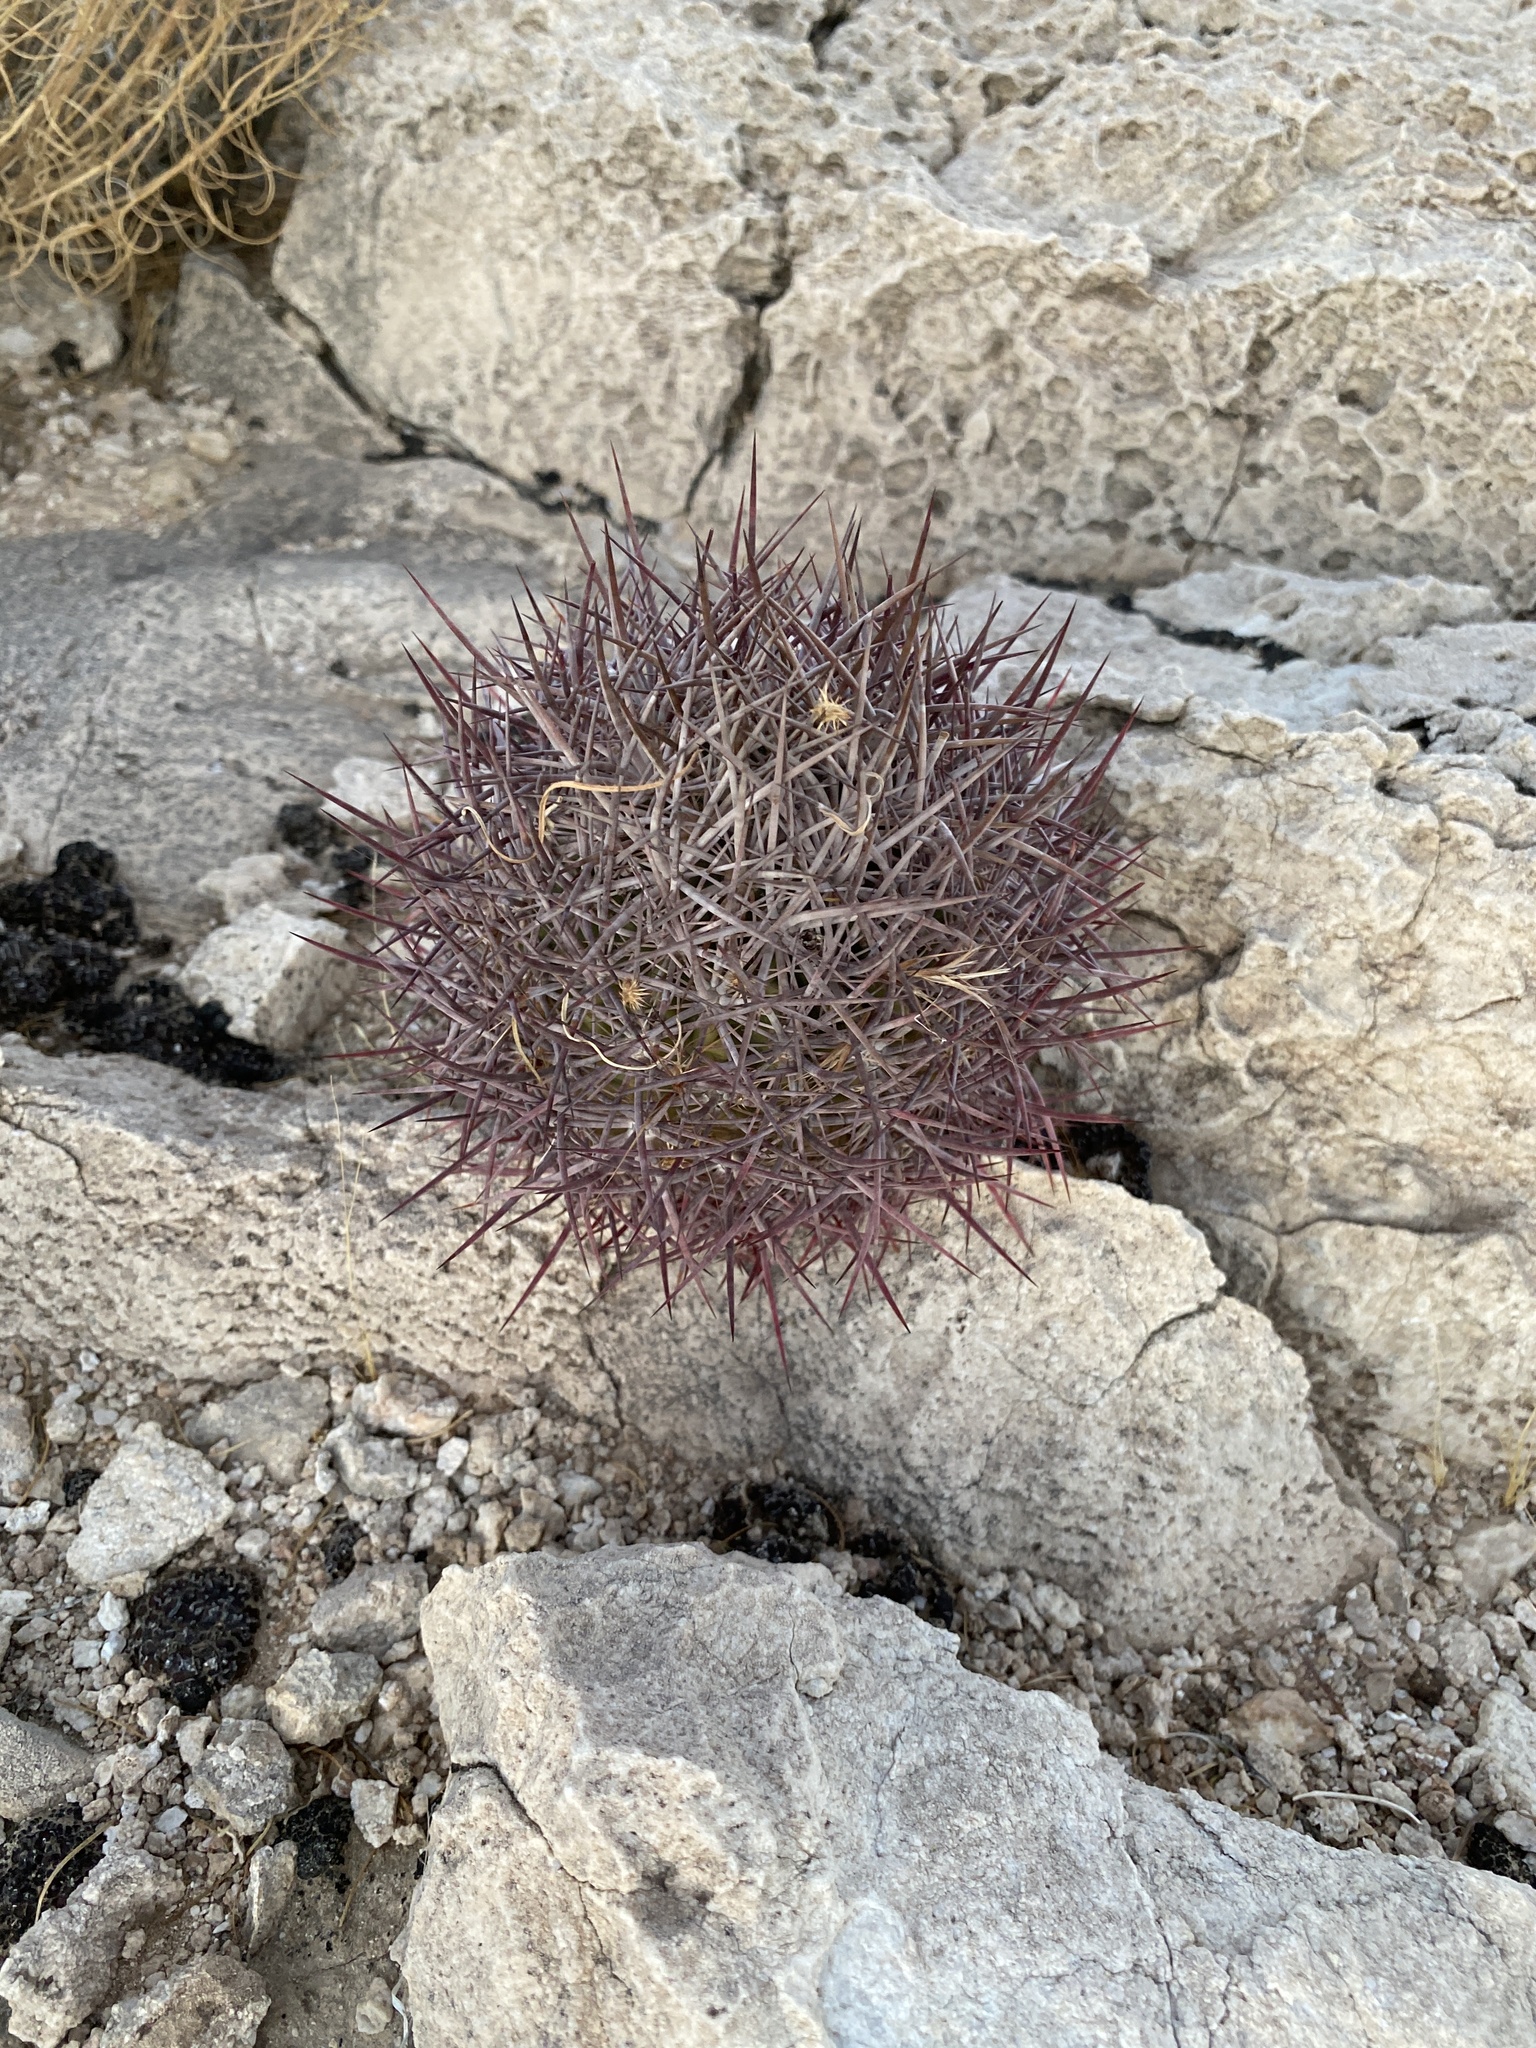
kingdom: Plantae
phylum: Tracheophyta
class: Magnoliopsida
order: Caryophyllales
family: Cactaceae
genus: Sclerocactus
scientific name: Sclerocactus johnsonii
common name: Eight-spine fishhook cactus
